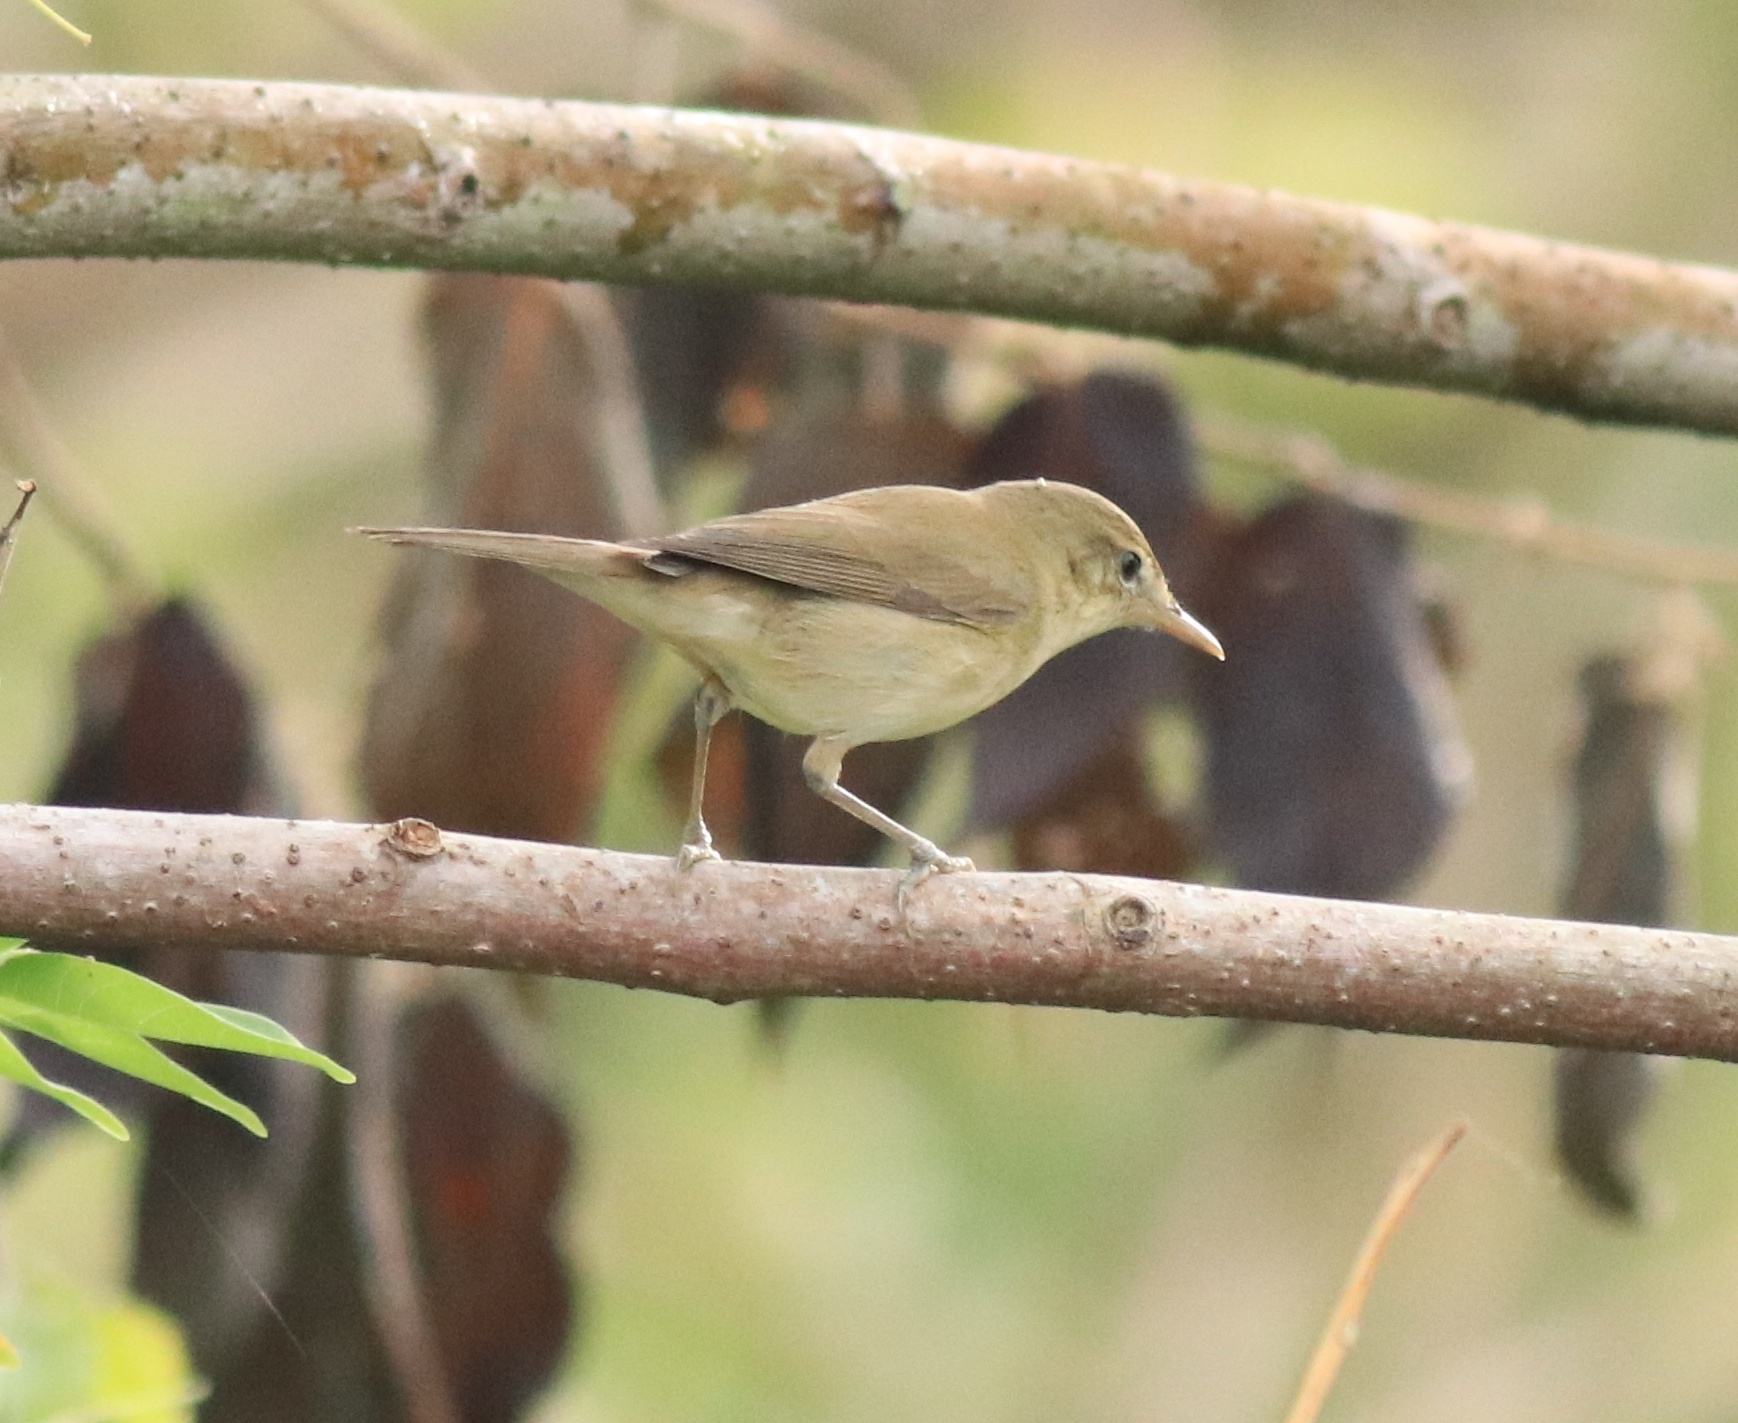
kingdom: Animalia
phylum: Chordata
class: Aves
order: Passeriformes
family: Acrocephalidae
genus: Acrocephalus
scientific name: Acrocephalus dumetorum
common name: Blyth's reed warbler
